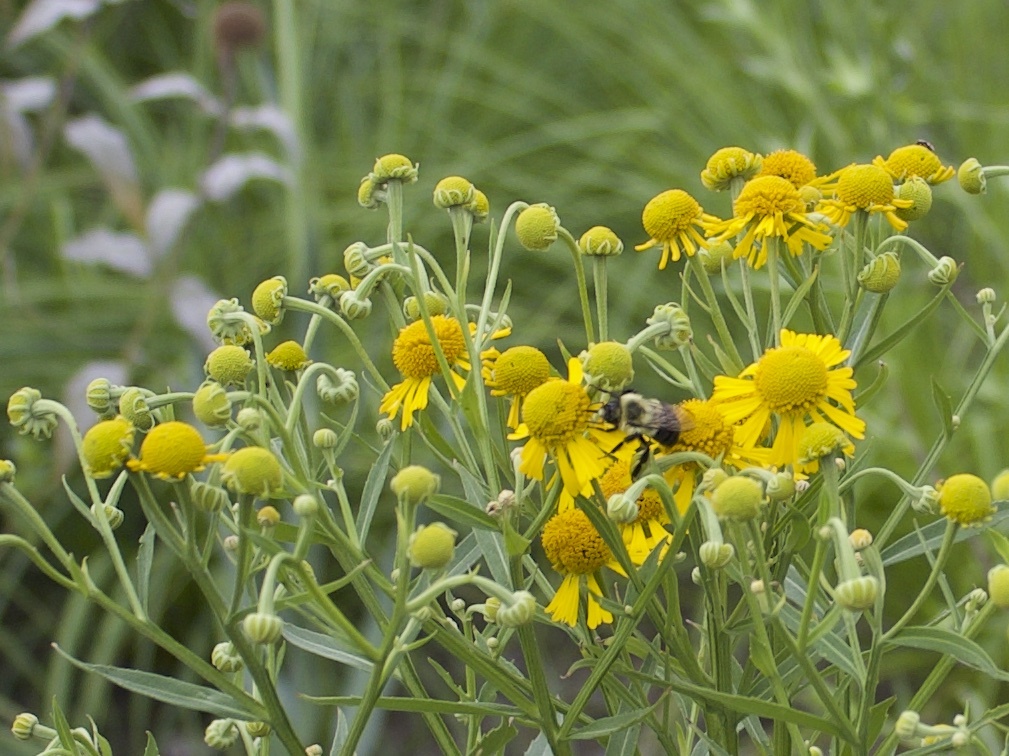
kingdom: Animalia
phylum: Arthropoda
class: Insecta
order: Hymenoptera
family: Apidae
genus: Bombus
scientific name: Bombus impatiens
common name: Common eastern bumble bee
